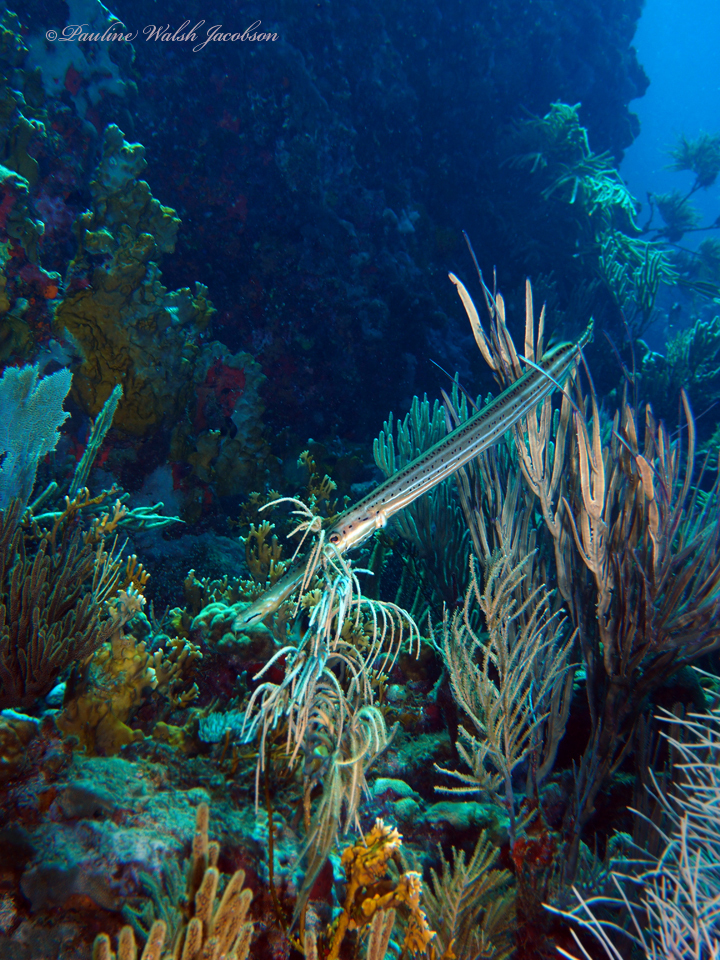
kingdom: Animalia
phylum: Chordata
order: Syngnathiformes
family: Aulostomidae
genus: Aulostomus
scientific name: Aulostomus maculatus
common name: West atlantic trumpetfish
